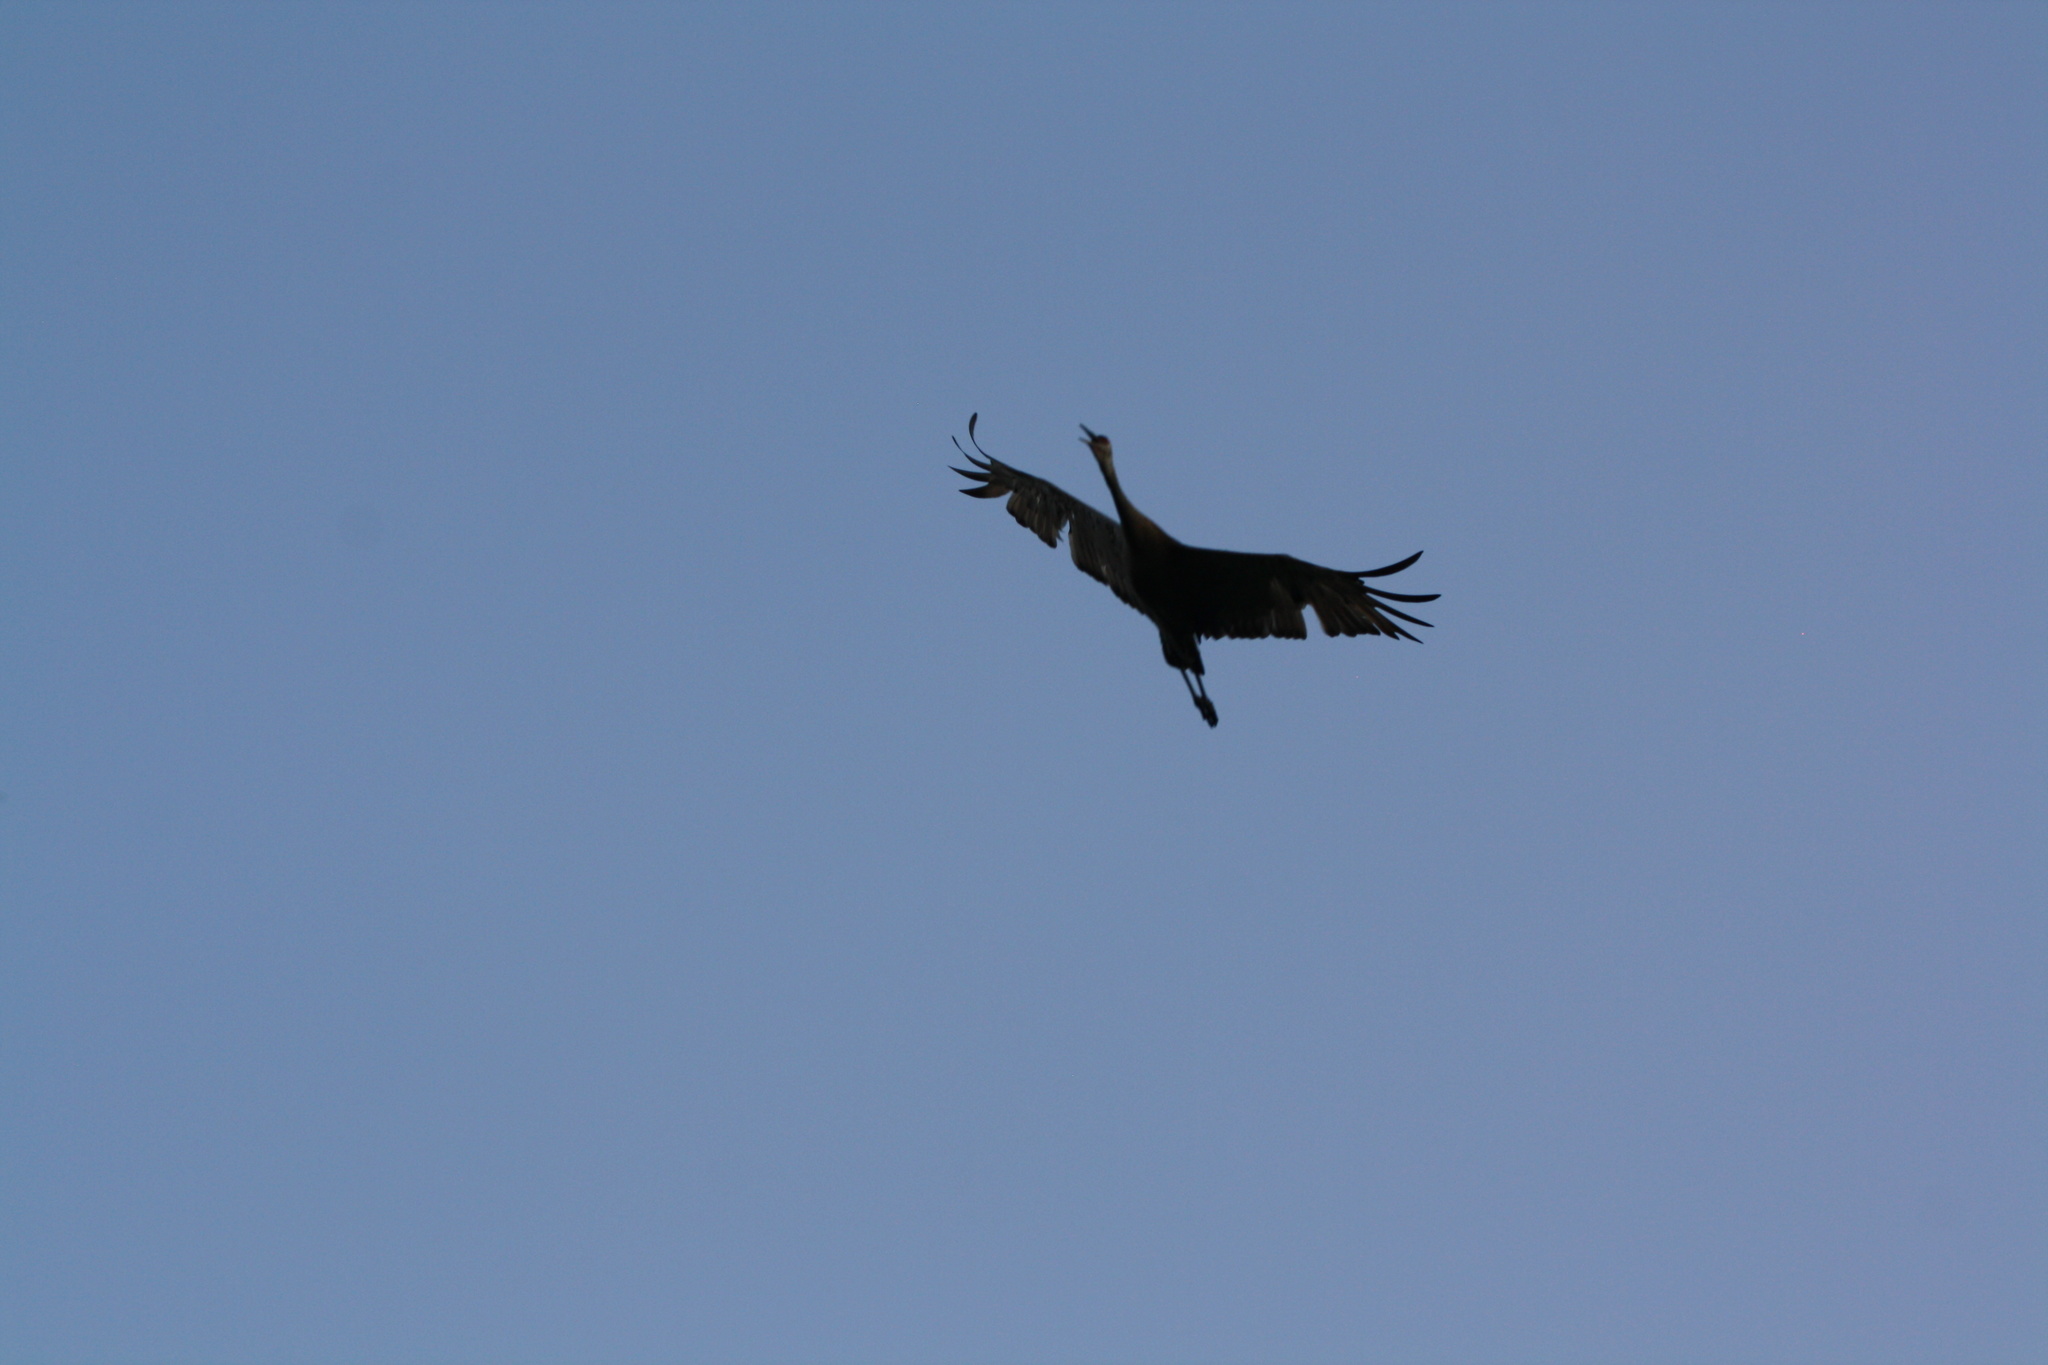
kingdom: Animalia
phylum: Chordata
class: Aves
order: Gruiformes
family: Gruidae
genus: Grus
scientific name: Grus canadensis
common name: Sandhill crane
